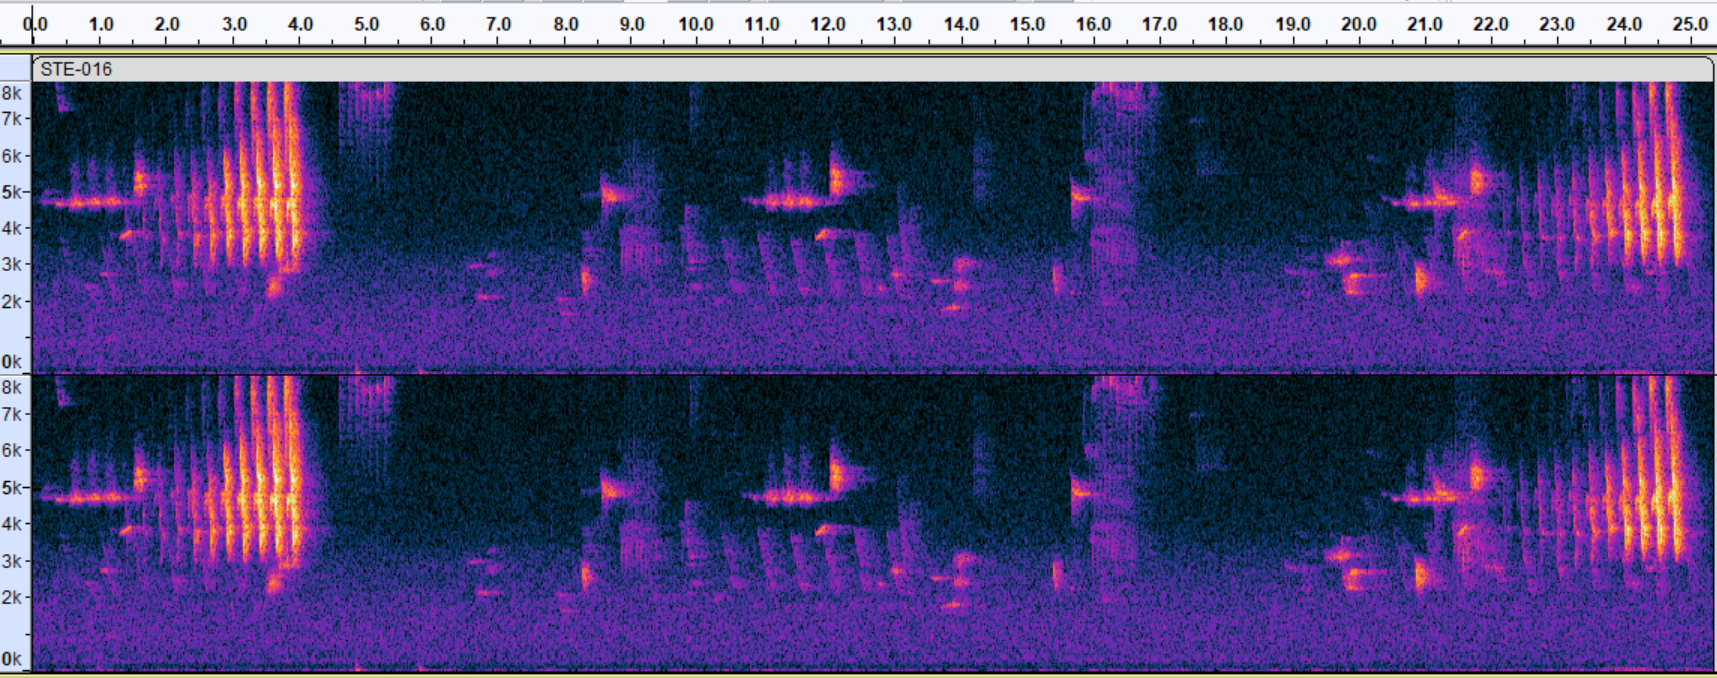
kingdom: Animalia
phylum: Chordata
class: Aves
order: Passeriformes
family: Parulidae
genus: Seiurus
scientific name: Seiurus aurocapilla
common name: Ovenbird
